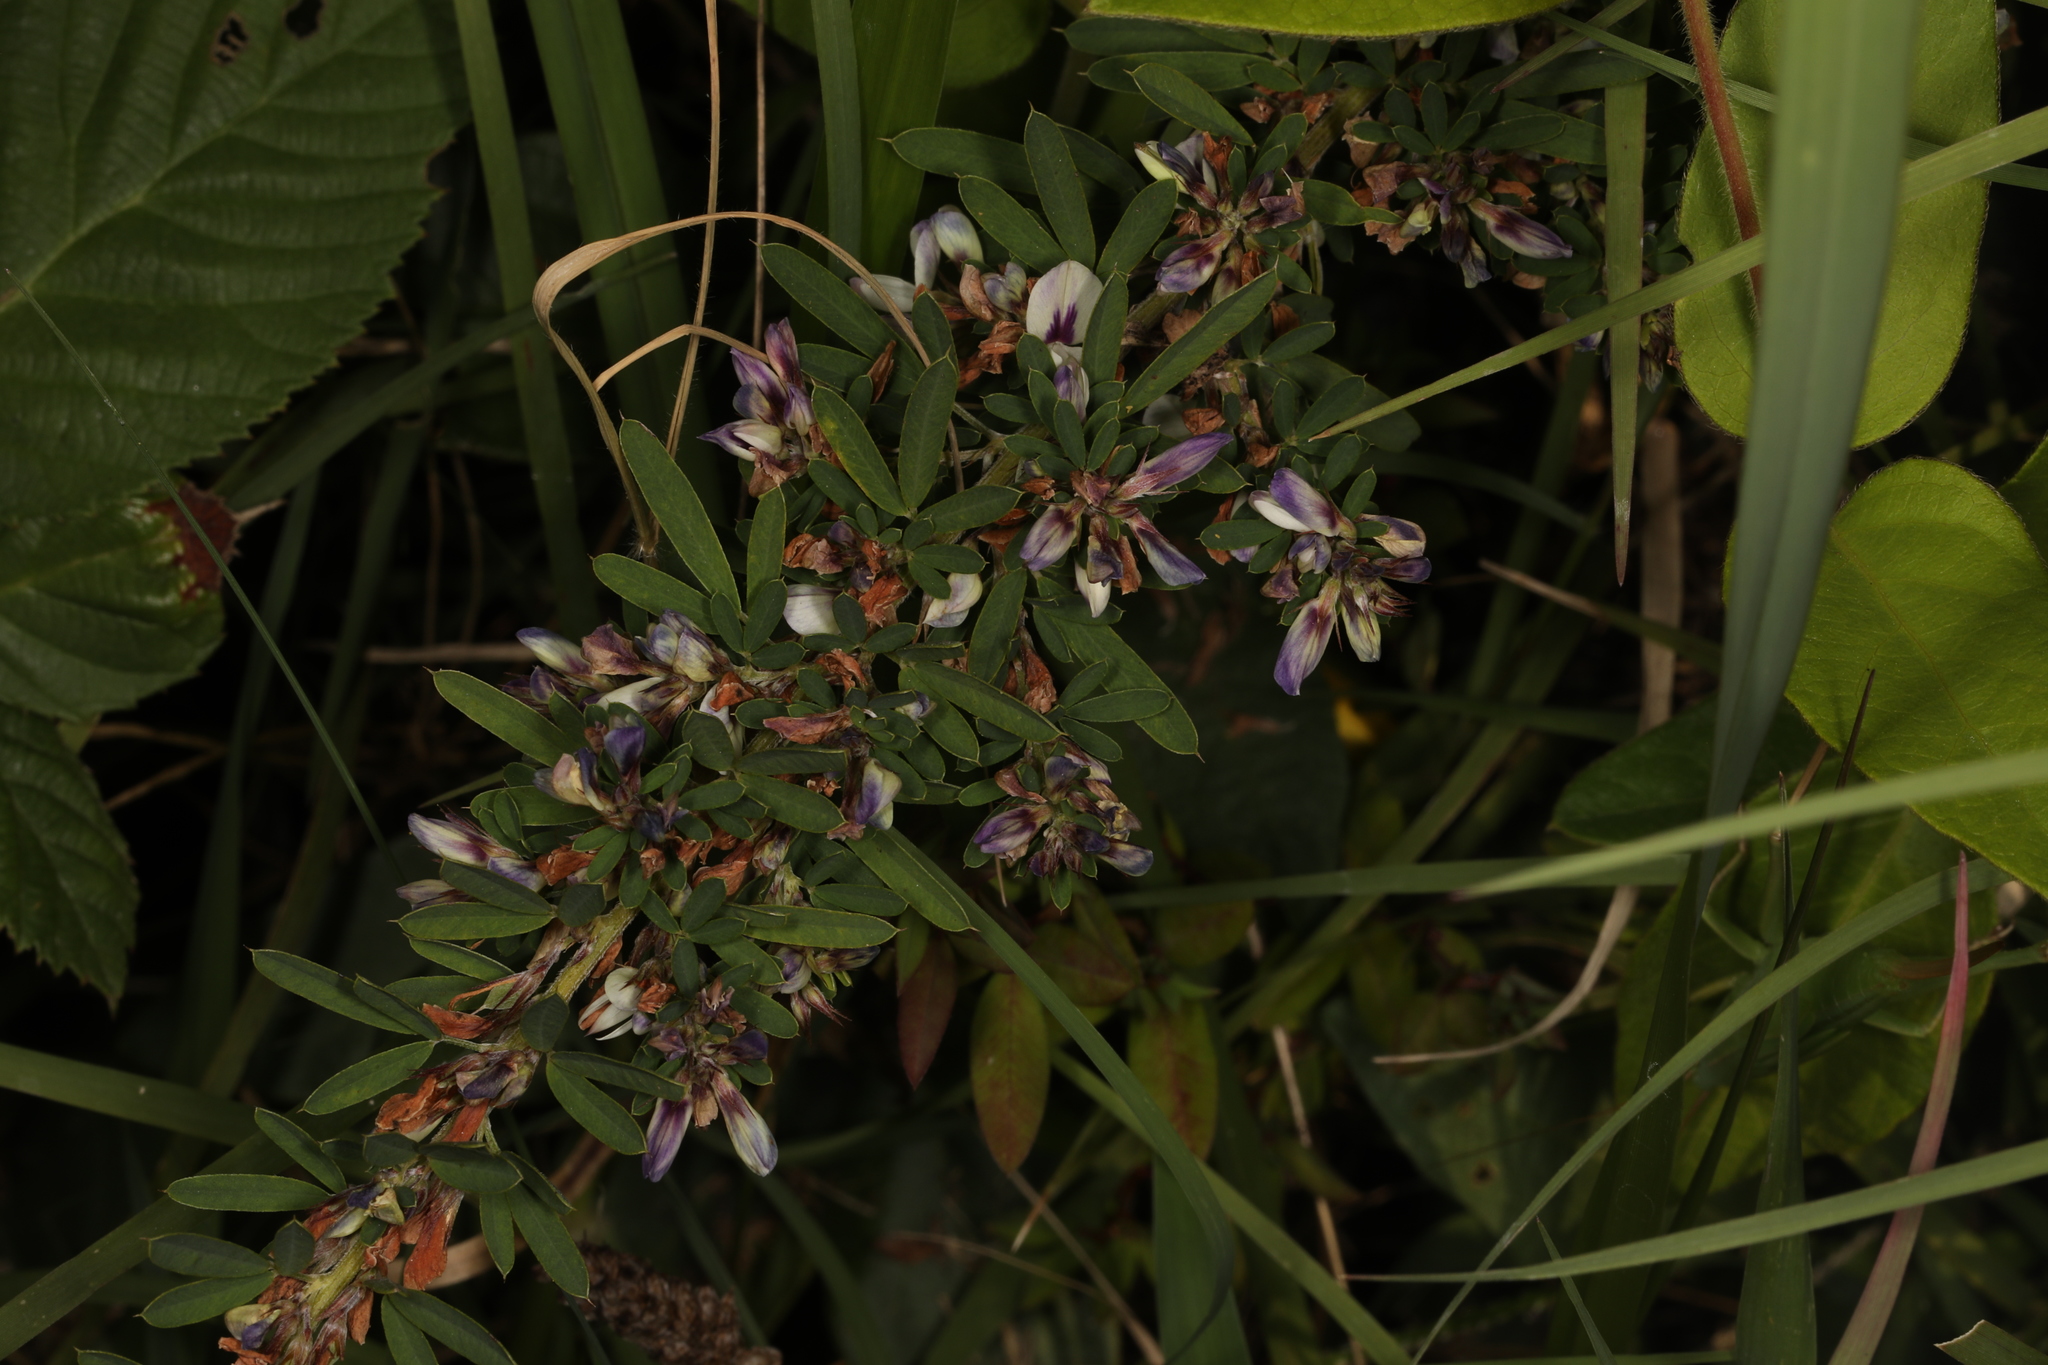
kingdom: Plantae
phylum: Tracheophyta
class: Magnoliopsida
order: Fabales
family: Fabaceae
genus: Lespedeza
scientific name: Lespedeza cuneata
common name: Chinese bush-clover
